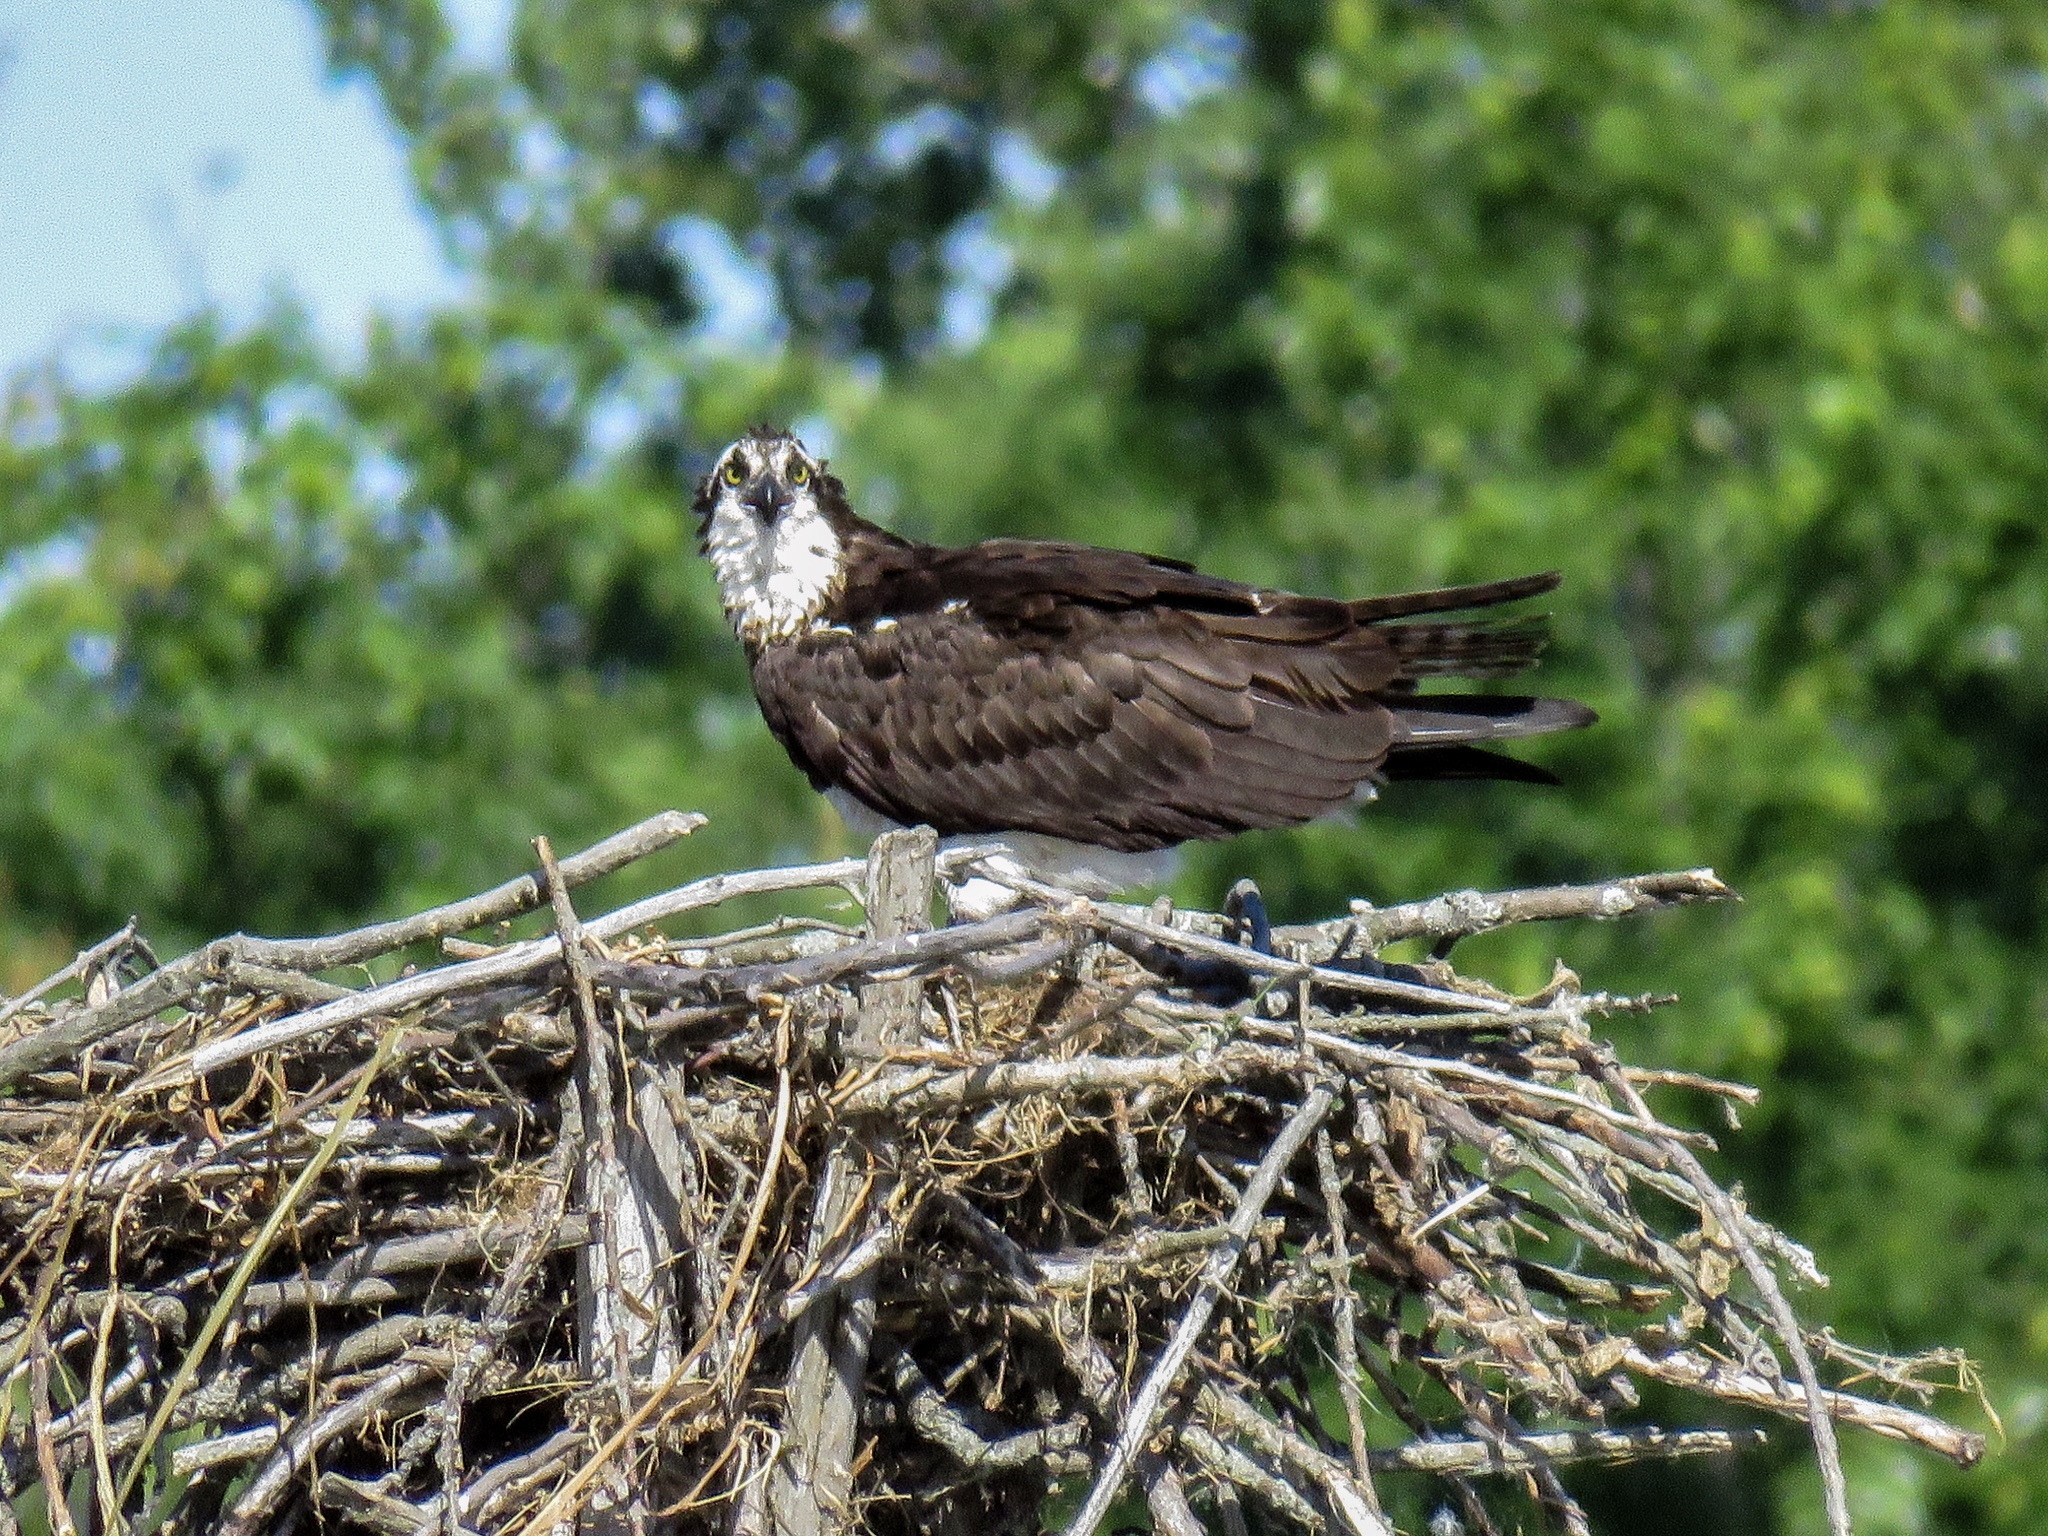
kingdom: Animalia
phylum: Chordata
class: Aves
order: Accipitriformes
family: Pandionidae
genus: Pandion
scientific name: Pandion haliaetus
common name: Osprey
